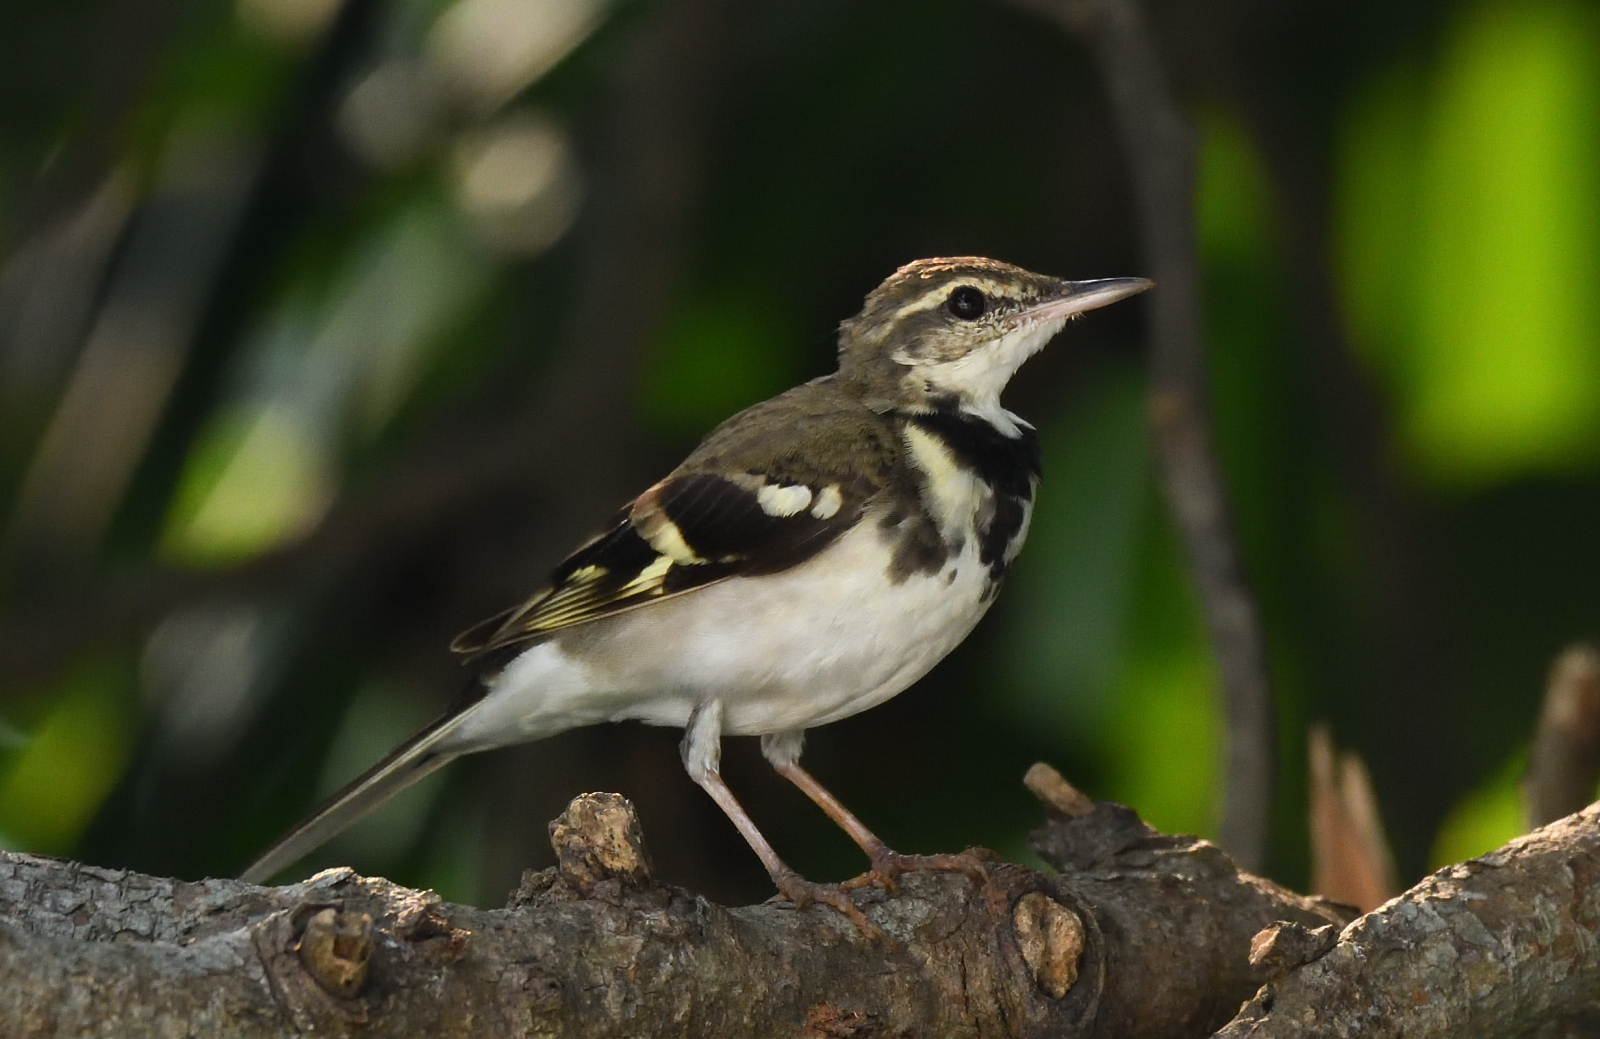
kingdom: Animalia
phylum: Chordata
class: Aves
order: Passeriformes
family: Motacillidae
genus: Dendronanthus
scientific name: Dendronanthus indicus
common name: Forest wagtail
